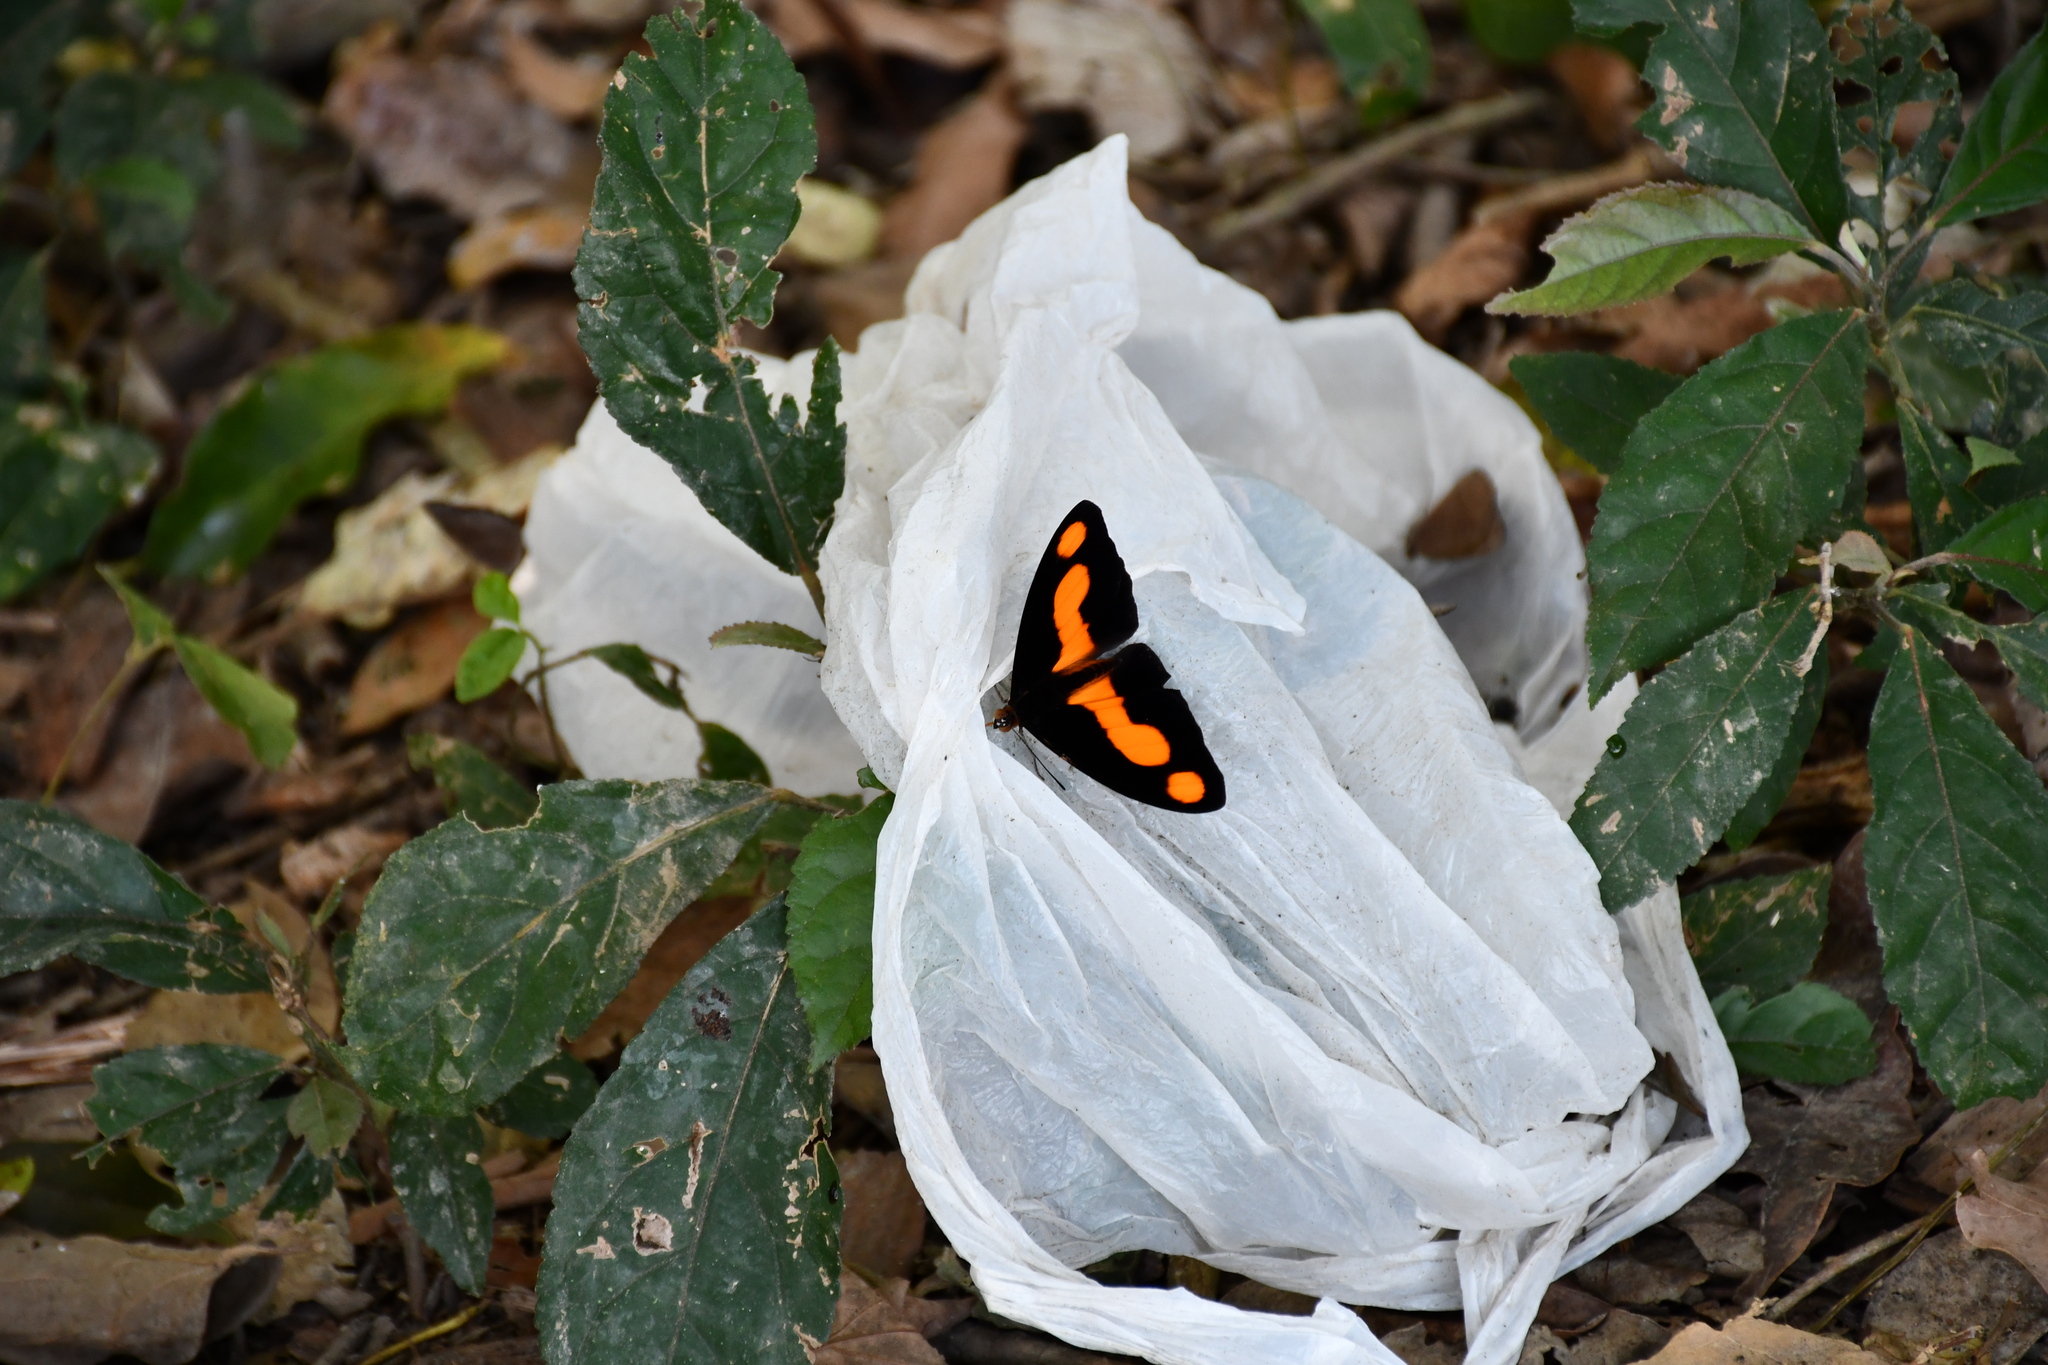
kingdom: Animalia
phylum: Arthropoda
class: Insecta
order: Lepidoptera
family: Nymphalidae
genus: Catonephele
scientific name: Catonephele antinoe
